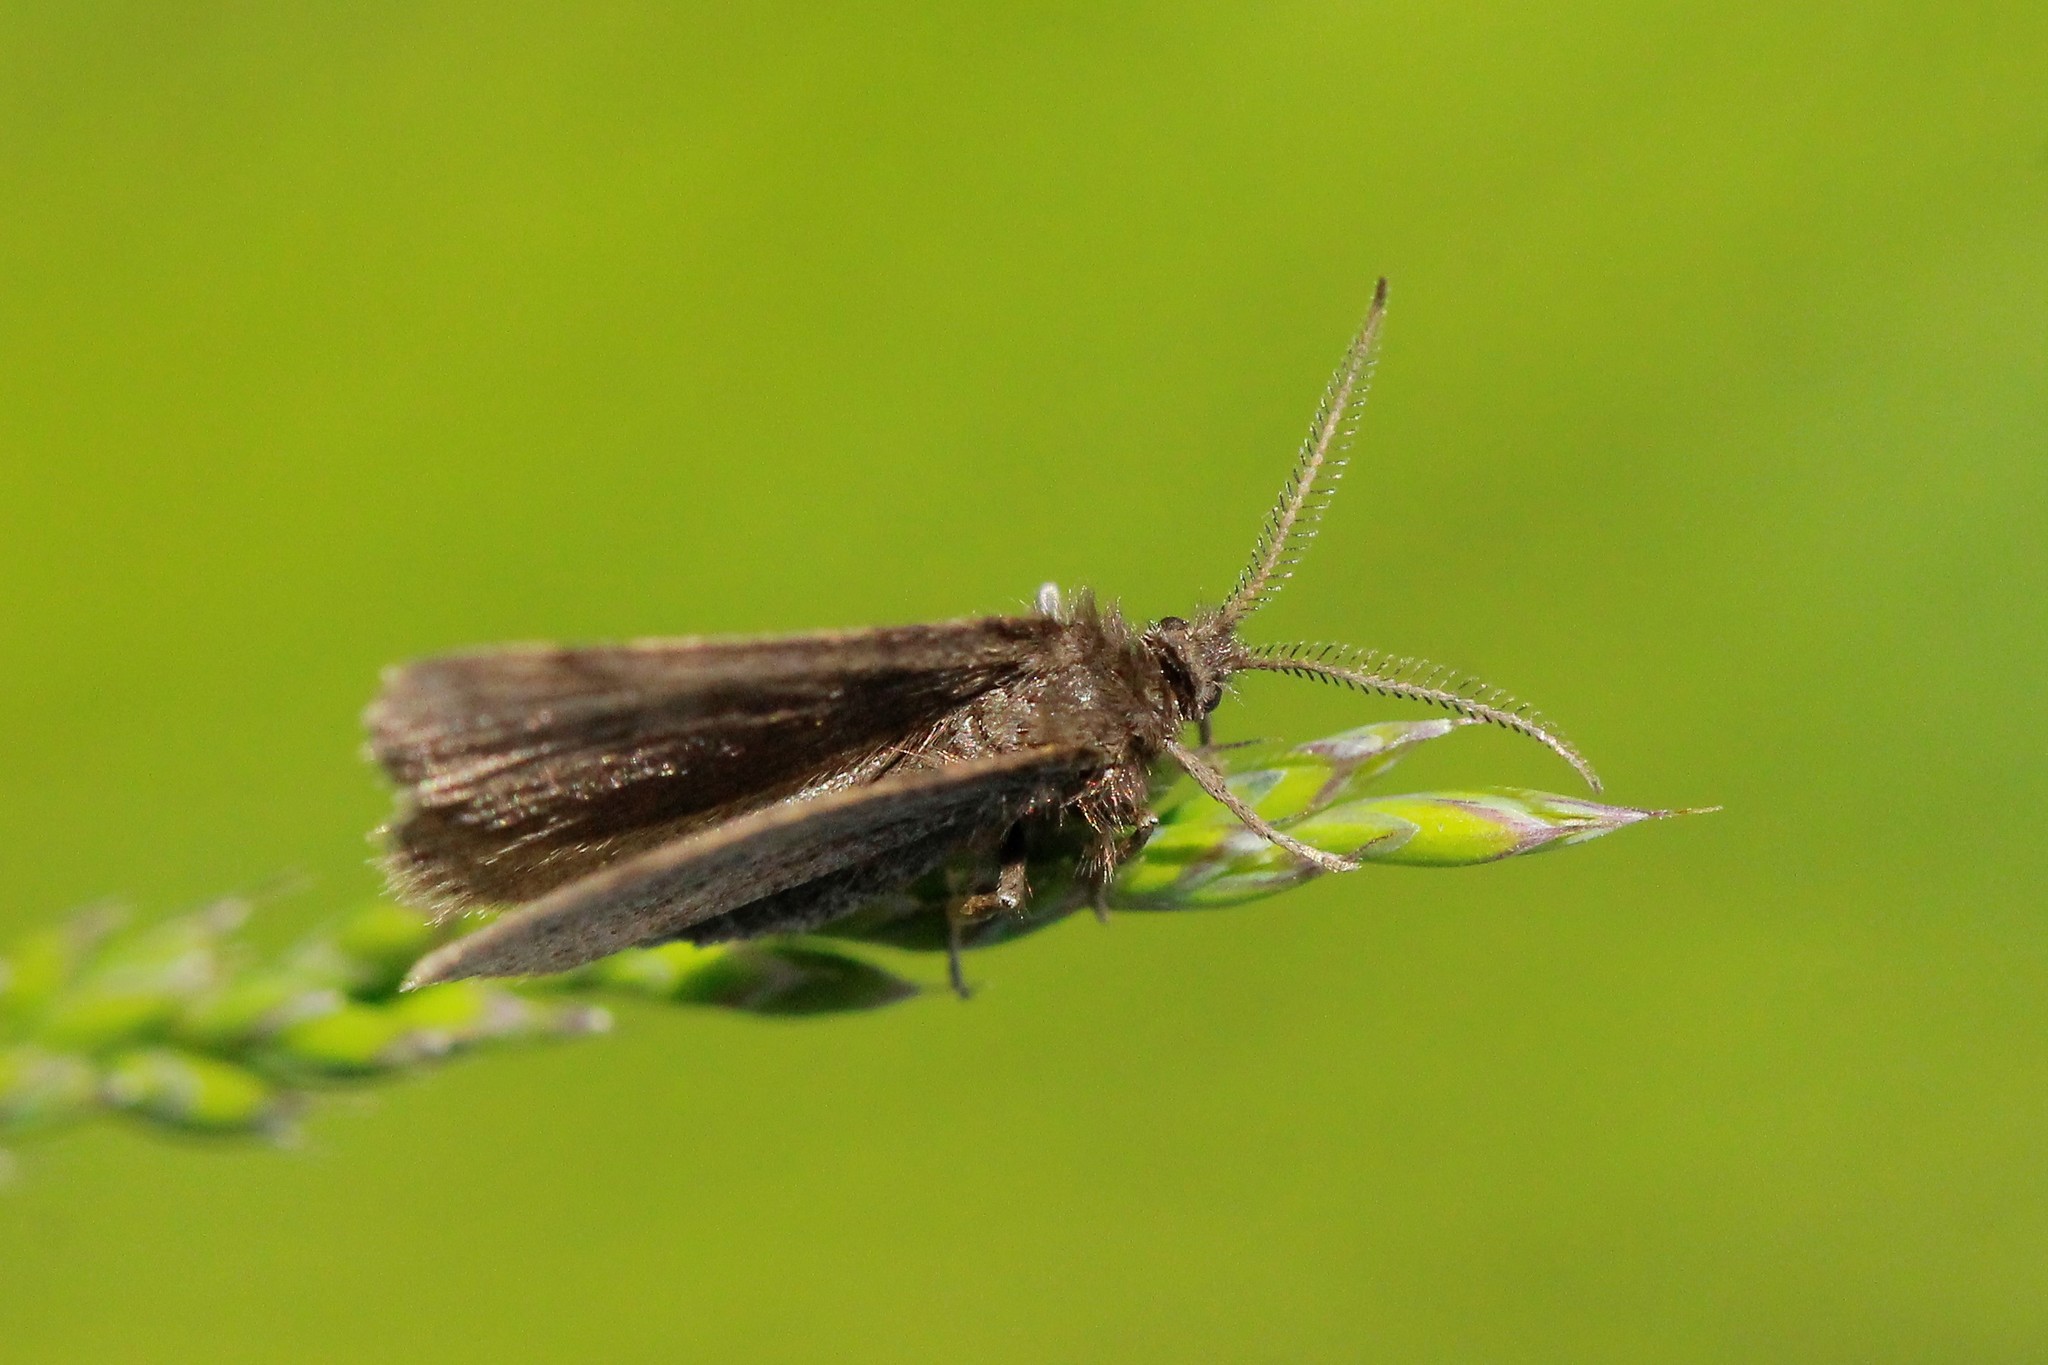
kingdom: Animalia
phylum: Arthropoda
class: Insecta
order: Lepidoptera
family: Geometridae
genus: Macaria
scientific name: Macaria fusca
